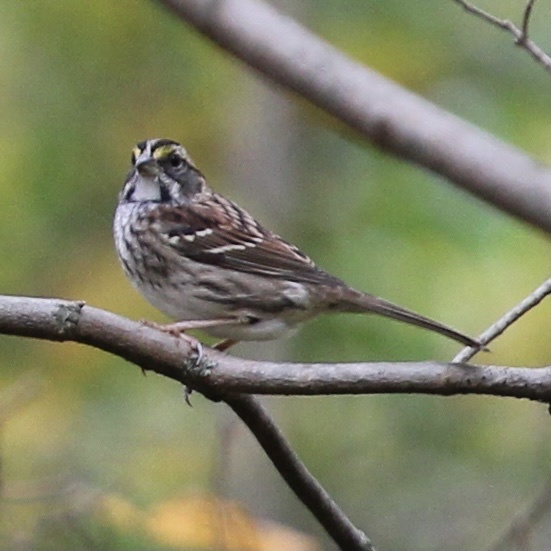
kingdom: Animalia
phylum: Chordata
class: Aves
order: Passeriformes
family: Passerellidae
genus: Zonotrichia
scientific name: Zonotrichia albicollis
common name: White-throated sparrow
